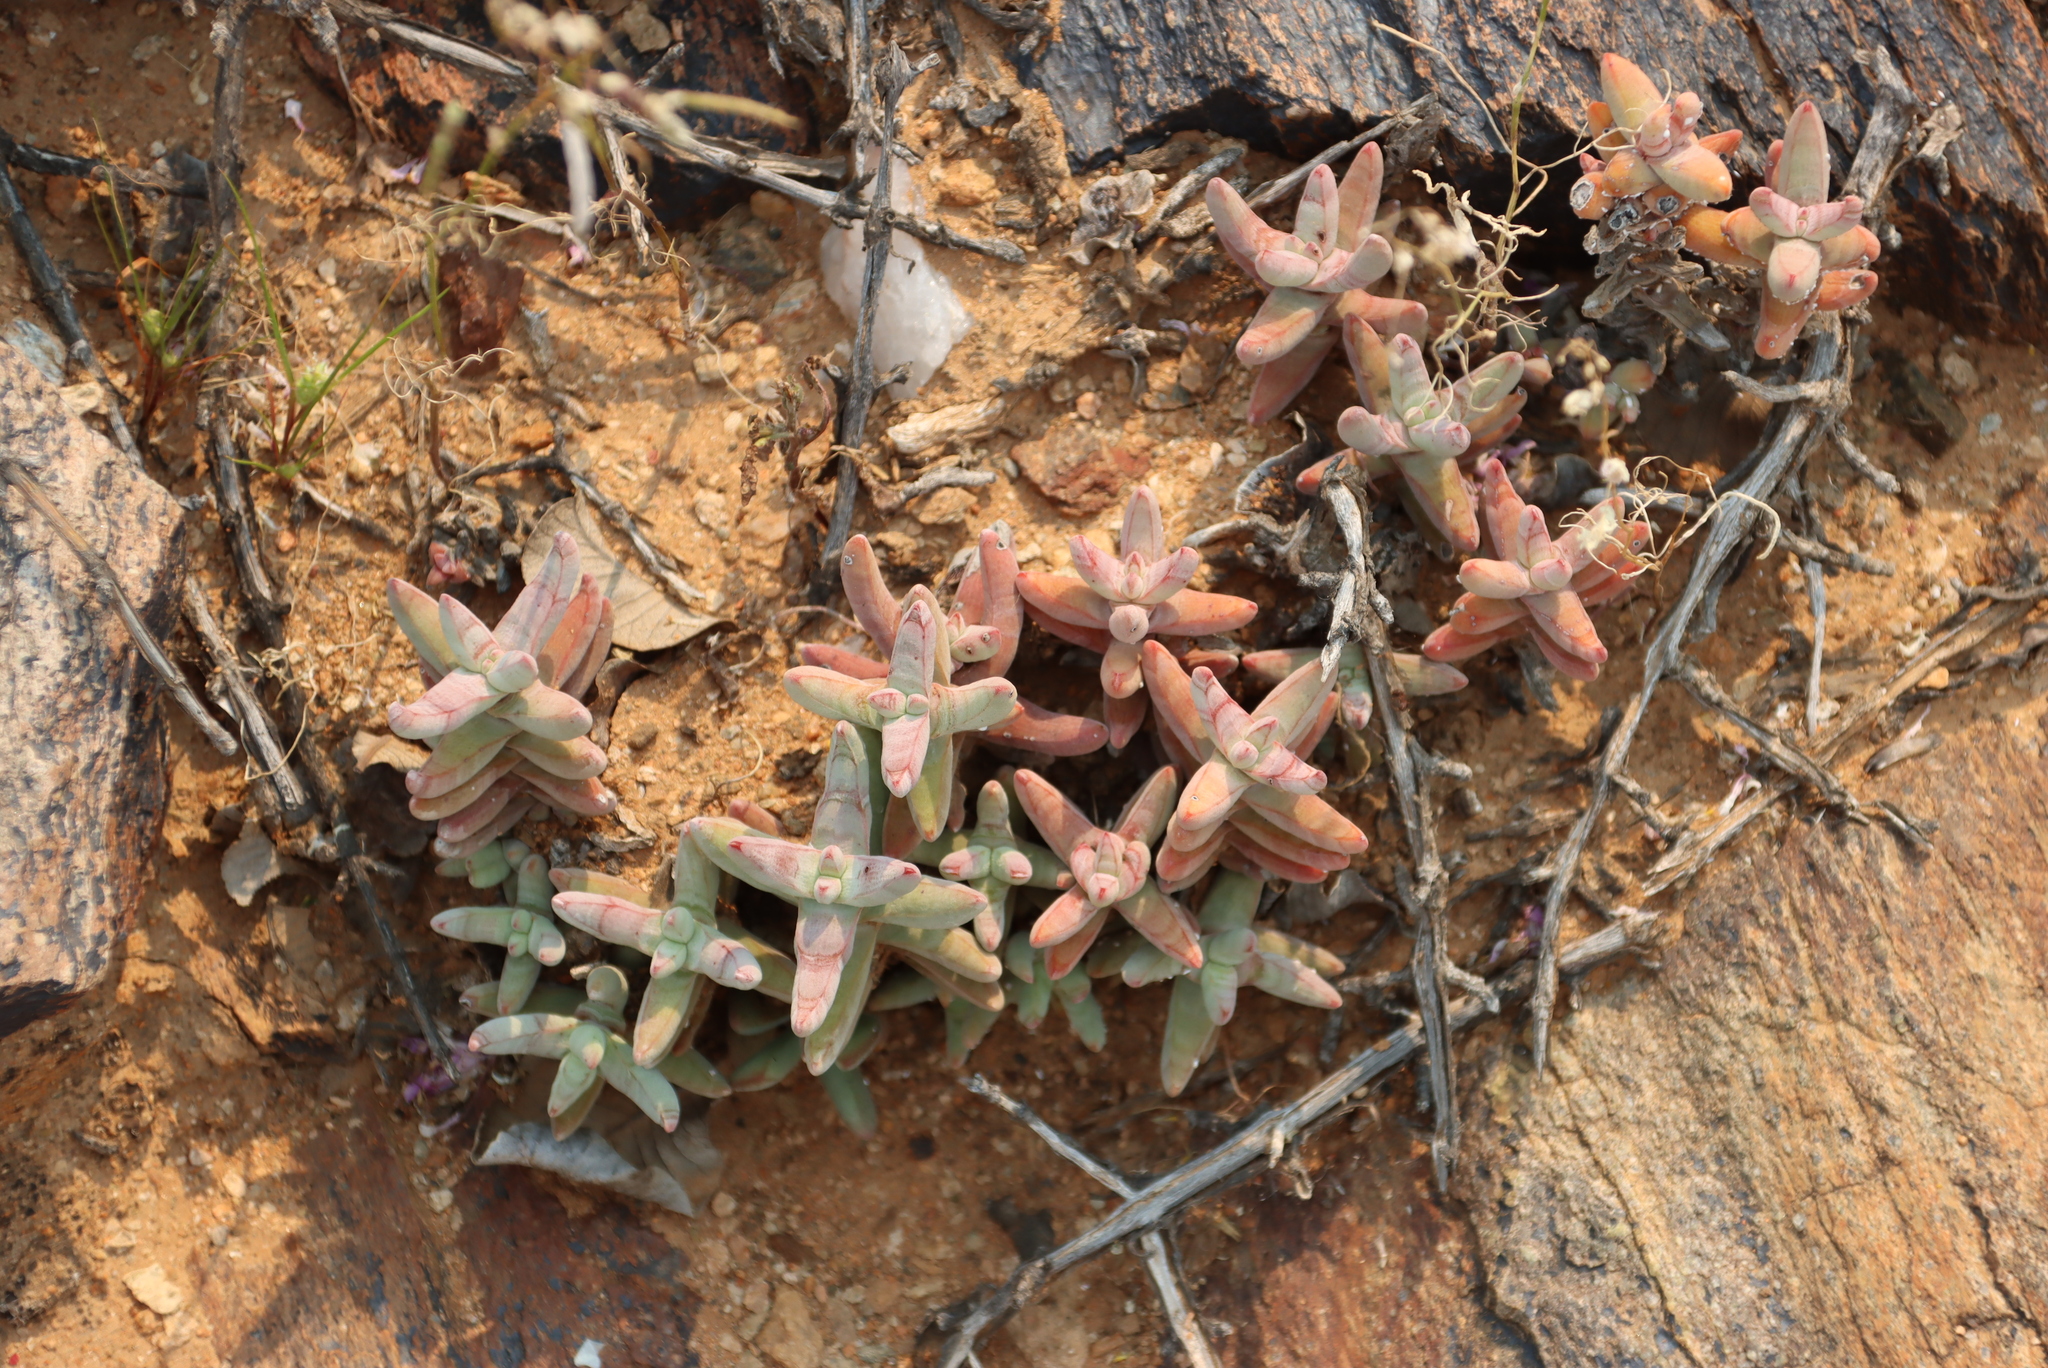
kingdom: Plantae
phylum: Tracheophyta
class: Magnoliopsida
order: Saxifragales
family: Crassulaceae
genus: Crassula
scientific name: Crassula fusca
